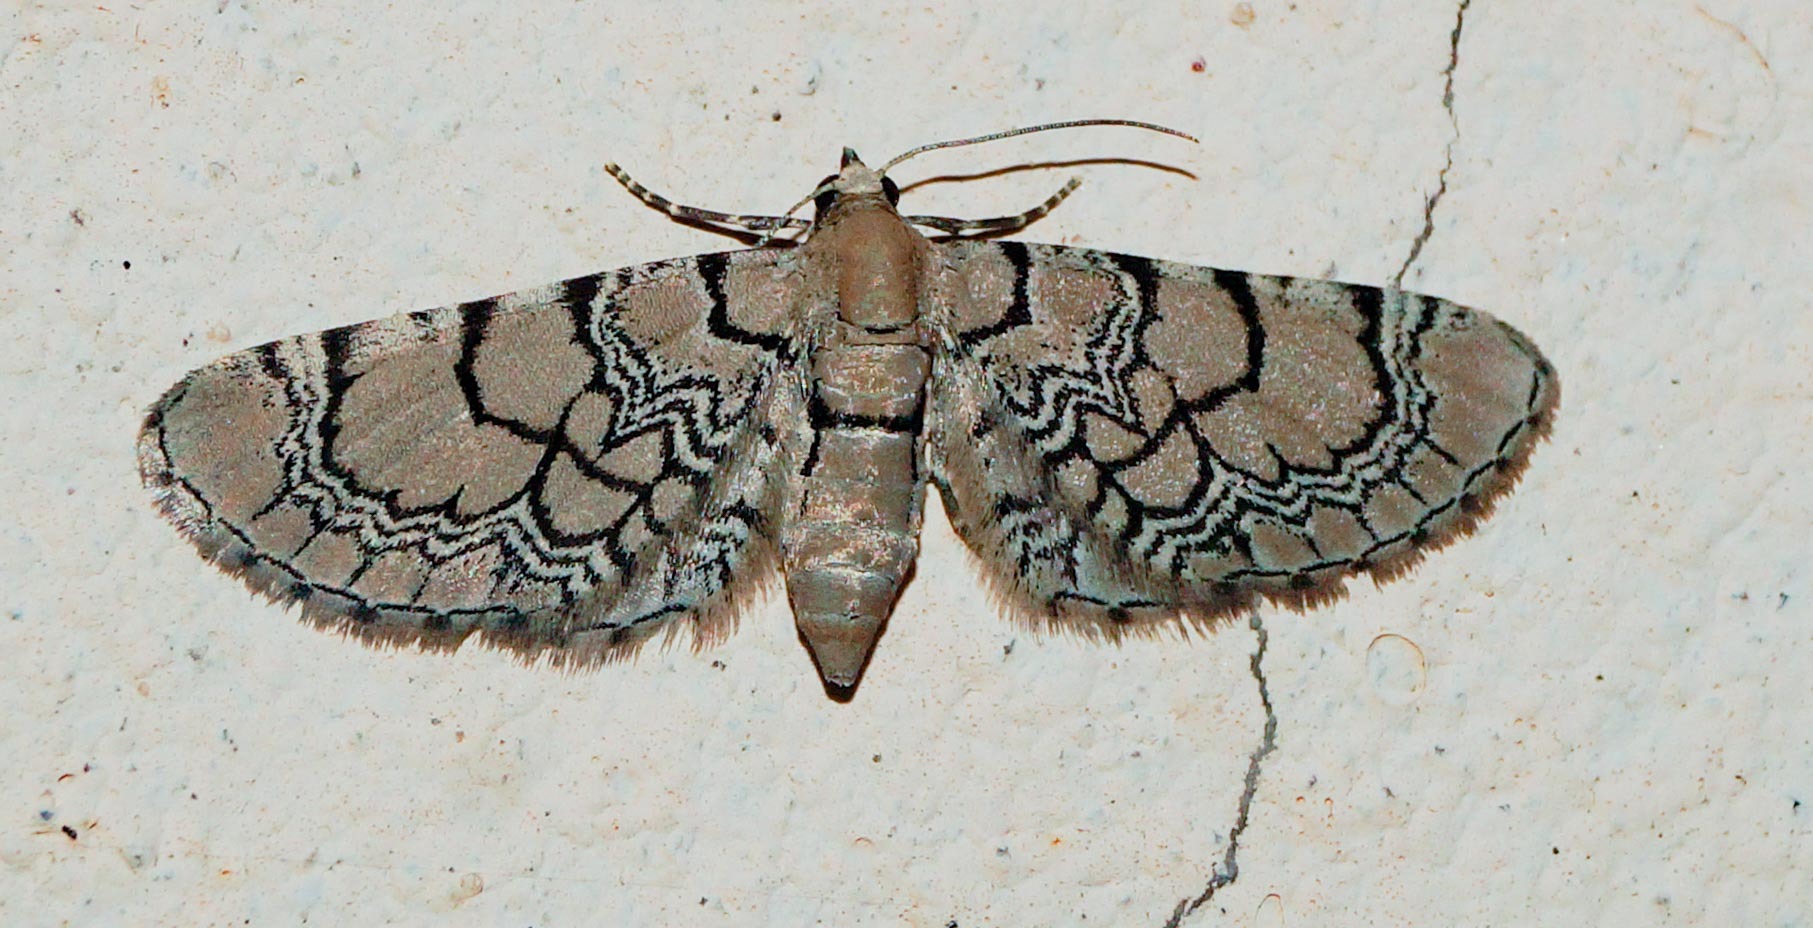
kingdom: Animalia
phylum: Arthropoda
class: Insecta
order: Lepidoptera
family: Geometridae
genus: Eupithecia
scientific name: Eupithecia venosata
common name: Netted pug
